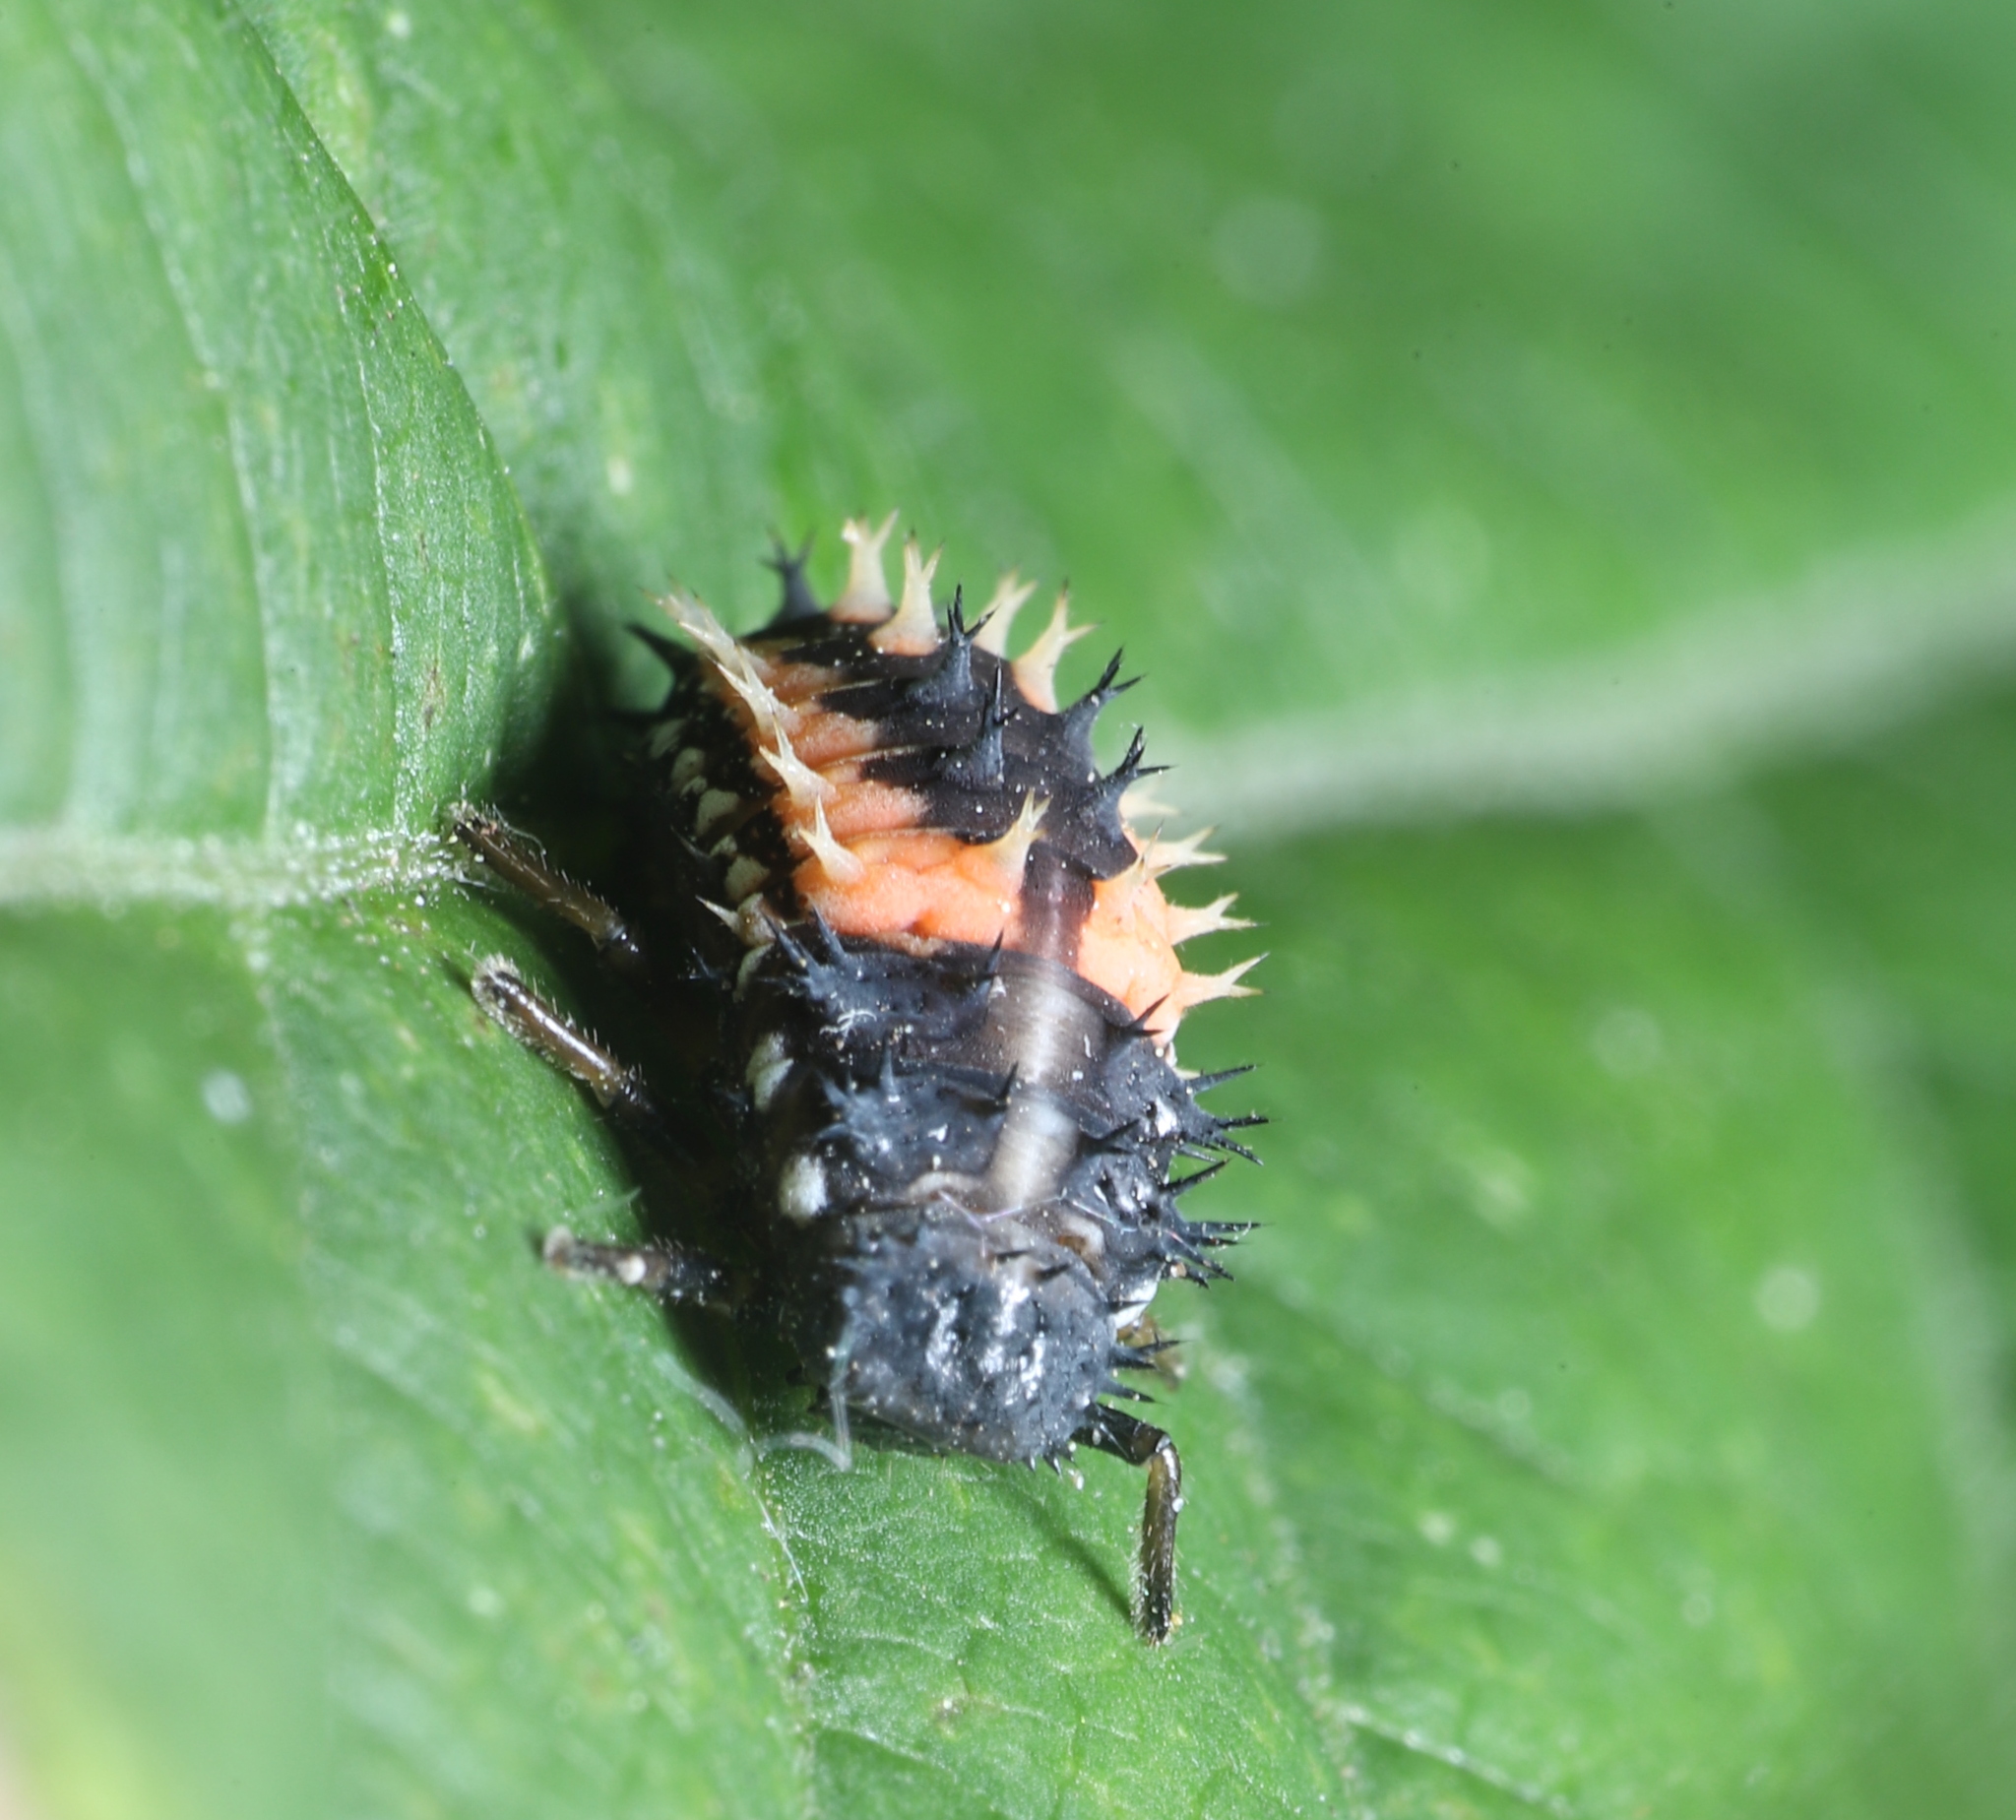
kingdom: Animalia
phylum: Arthropoda
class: Insecta
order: Coleoptera
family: Coccinellidae
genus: Harmonia
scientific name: Harmonia axyridis
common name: Harlequin ladybird
